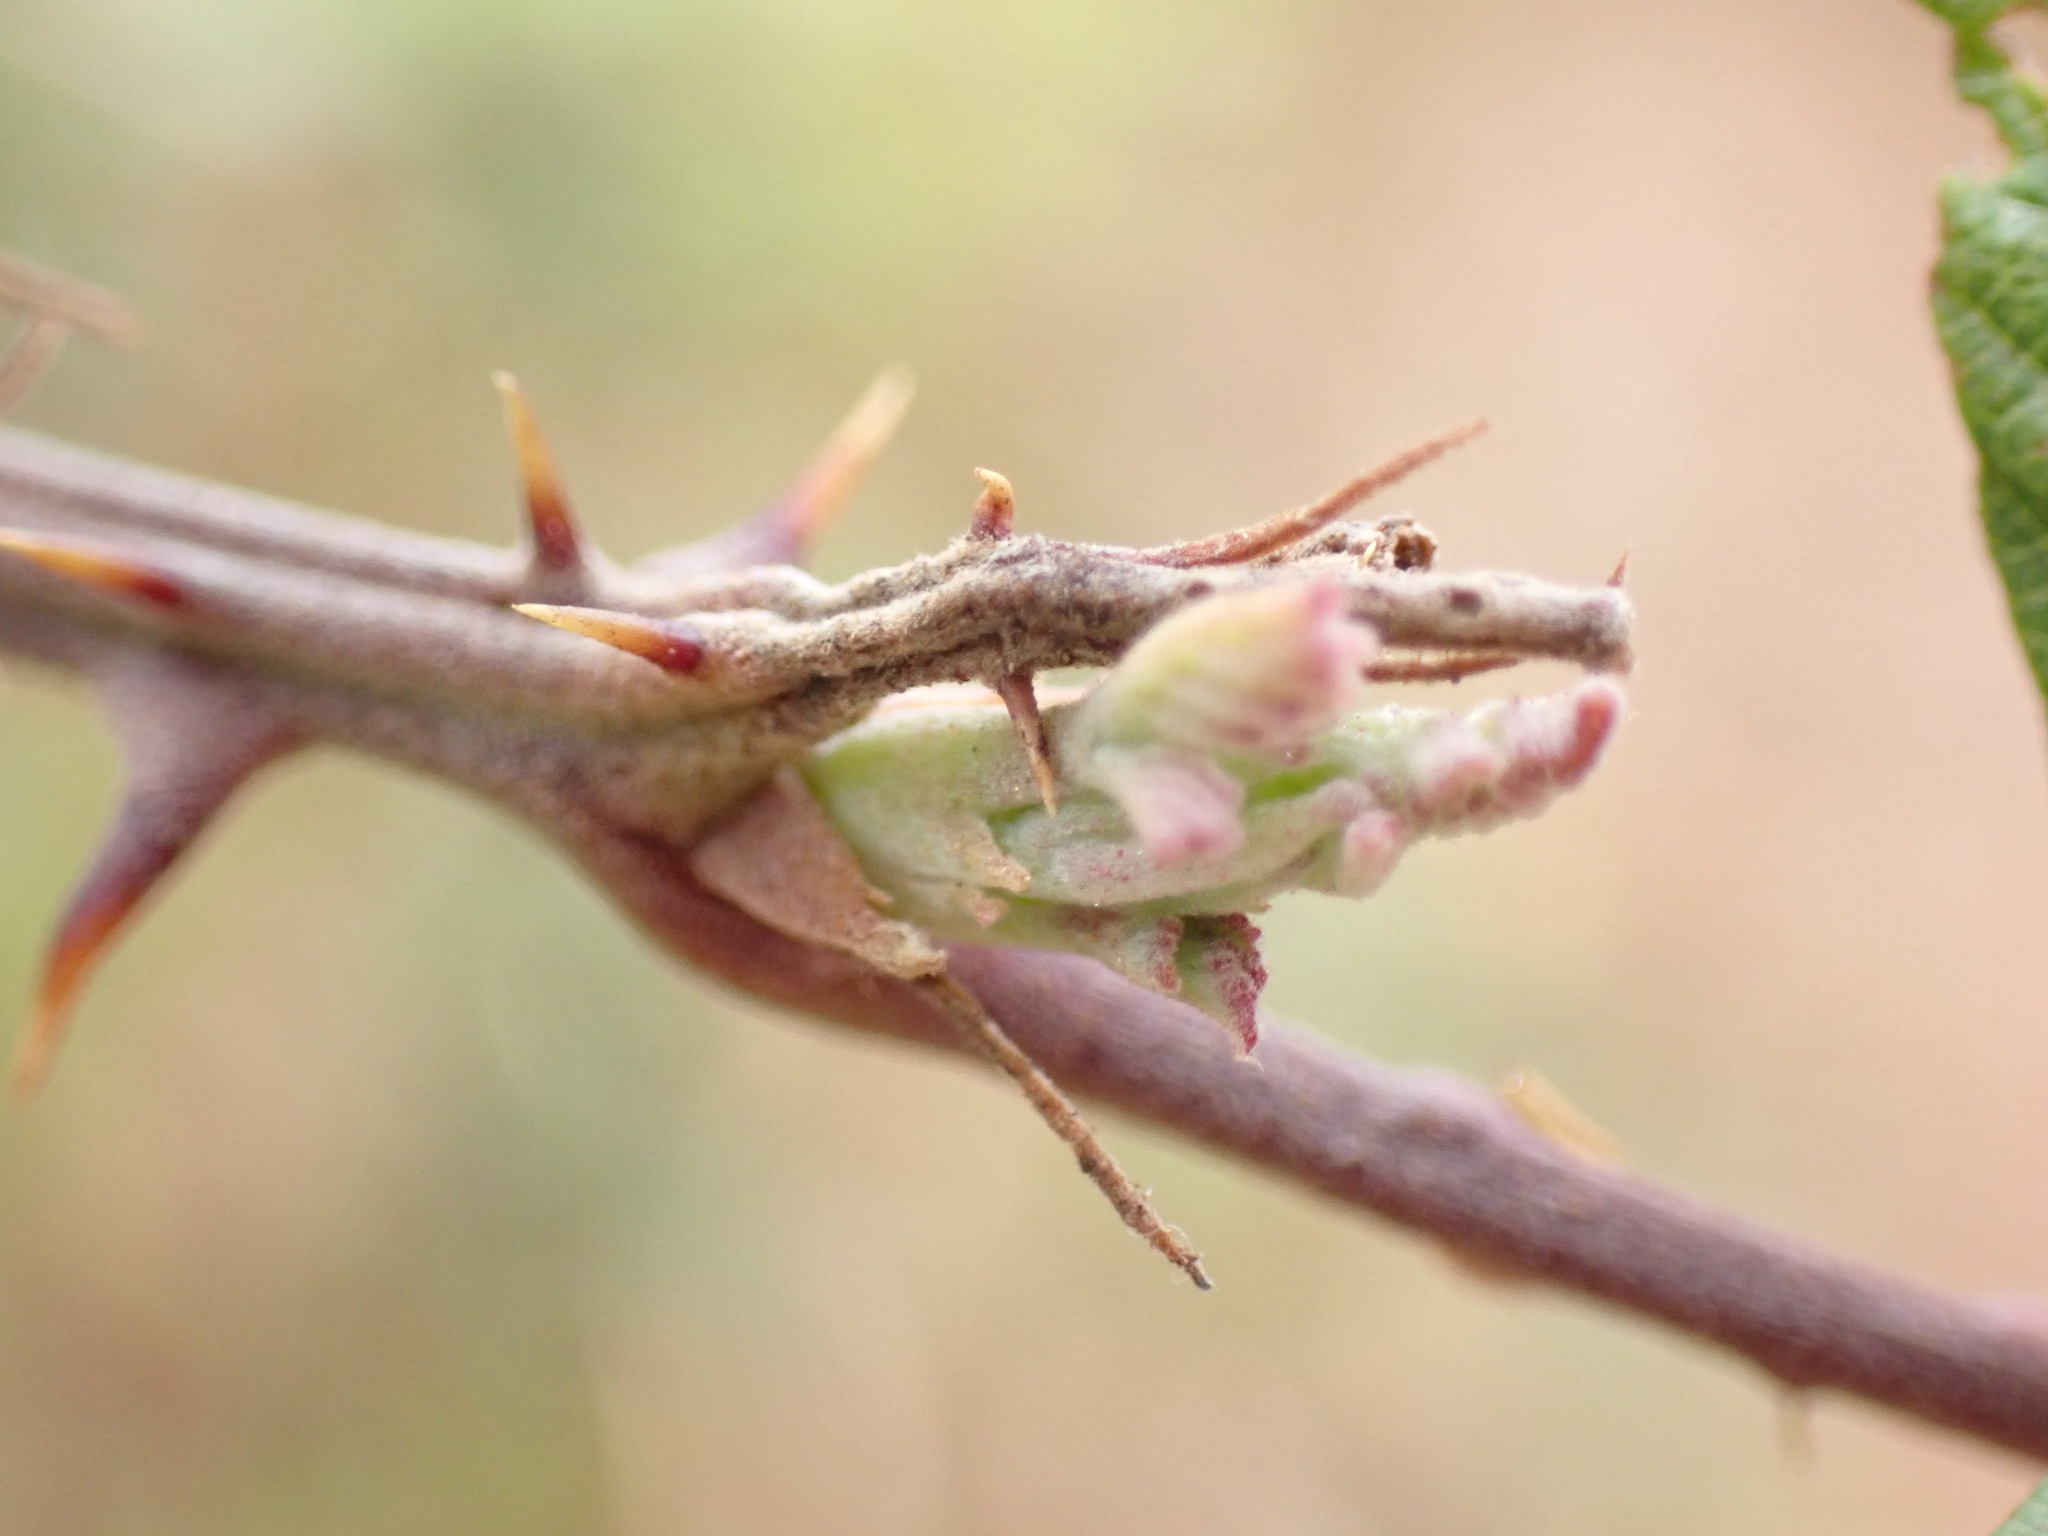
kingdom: Plantae
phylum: Tracheophyta
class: Magnoliopsida
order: Rosales
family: Rosaceae
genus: Rubus
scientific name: Rubus ulmifolius
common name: Elmleaf blackberry
